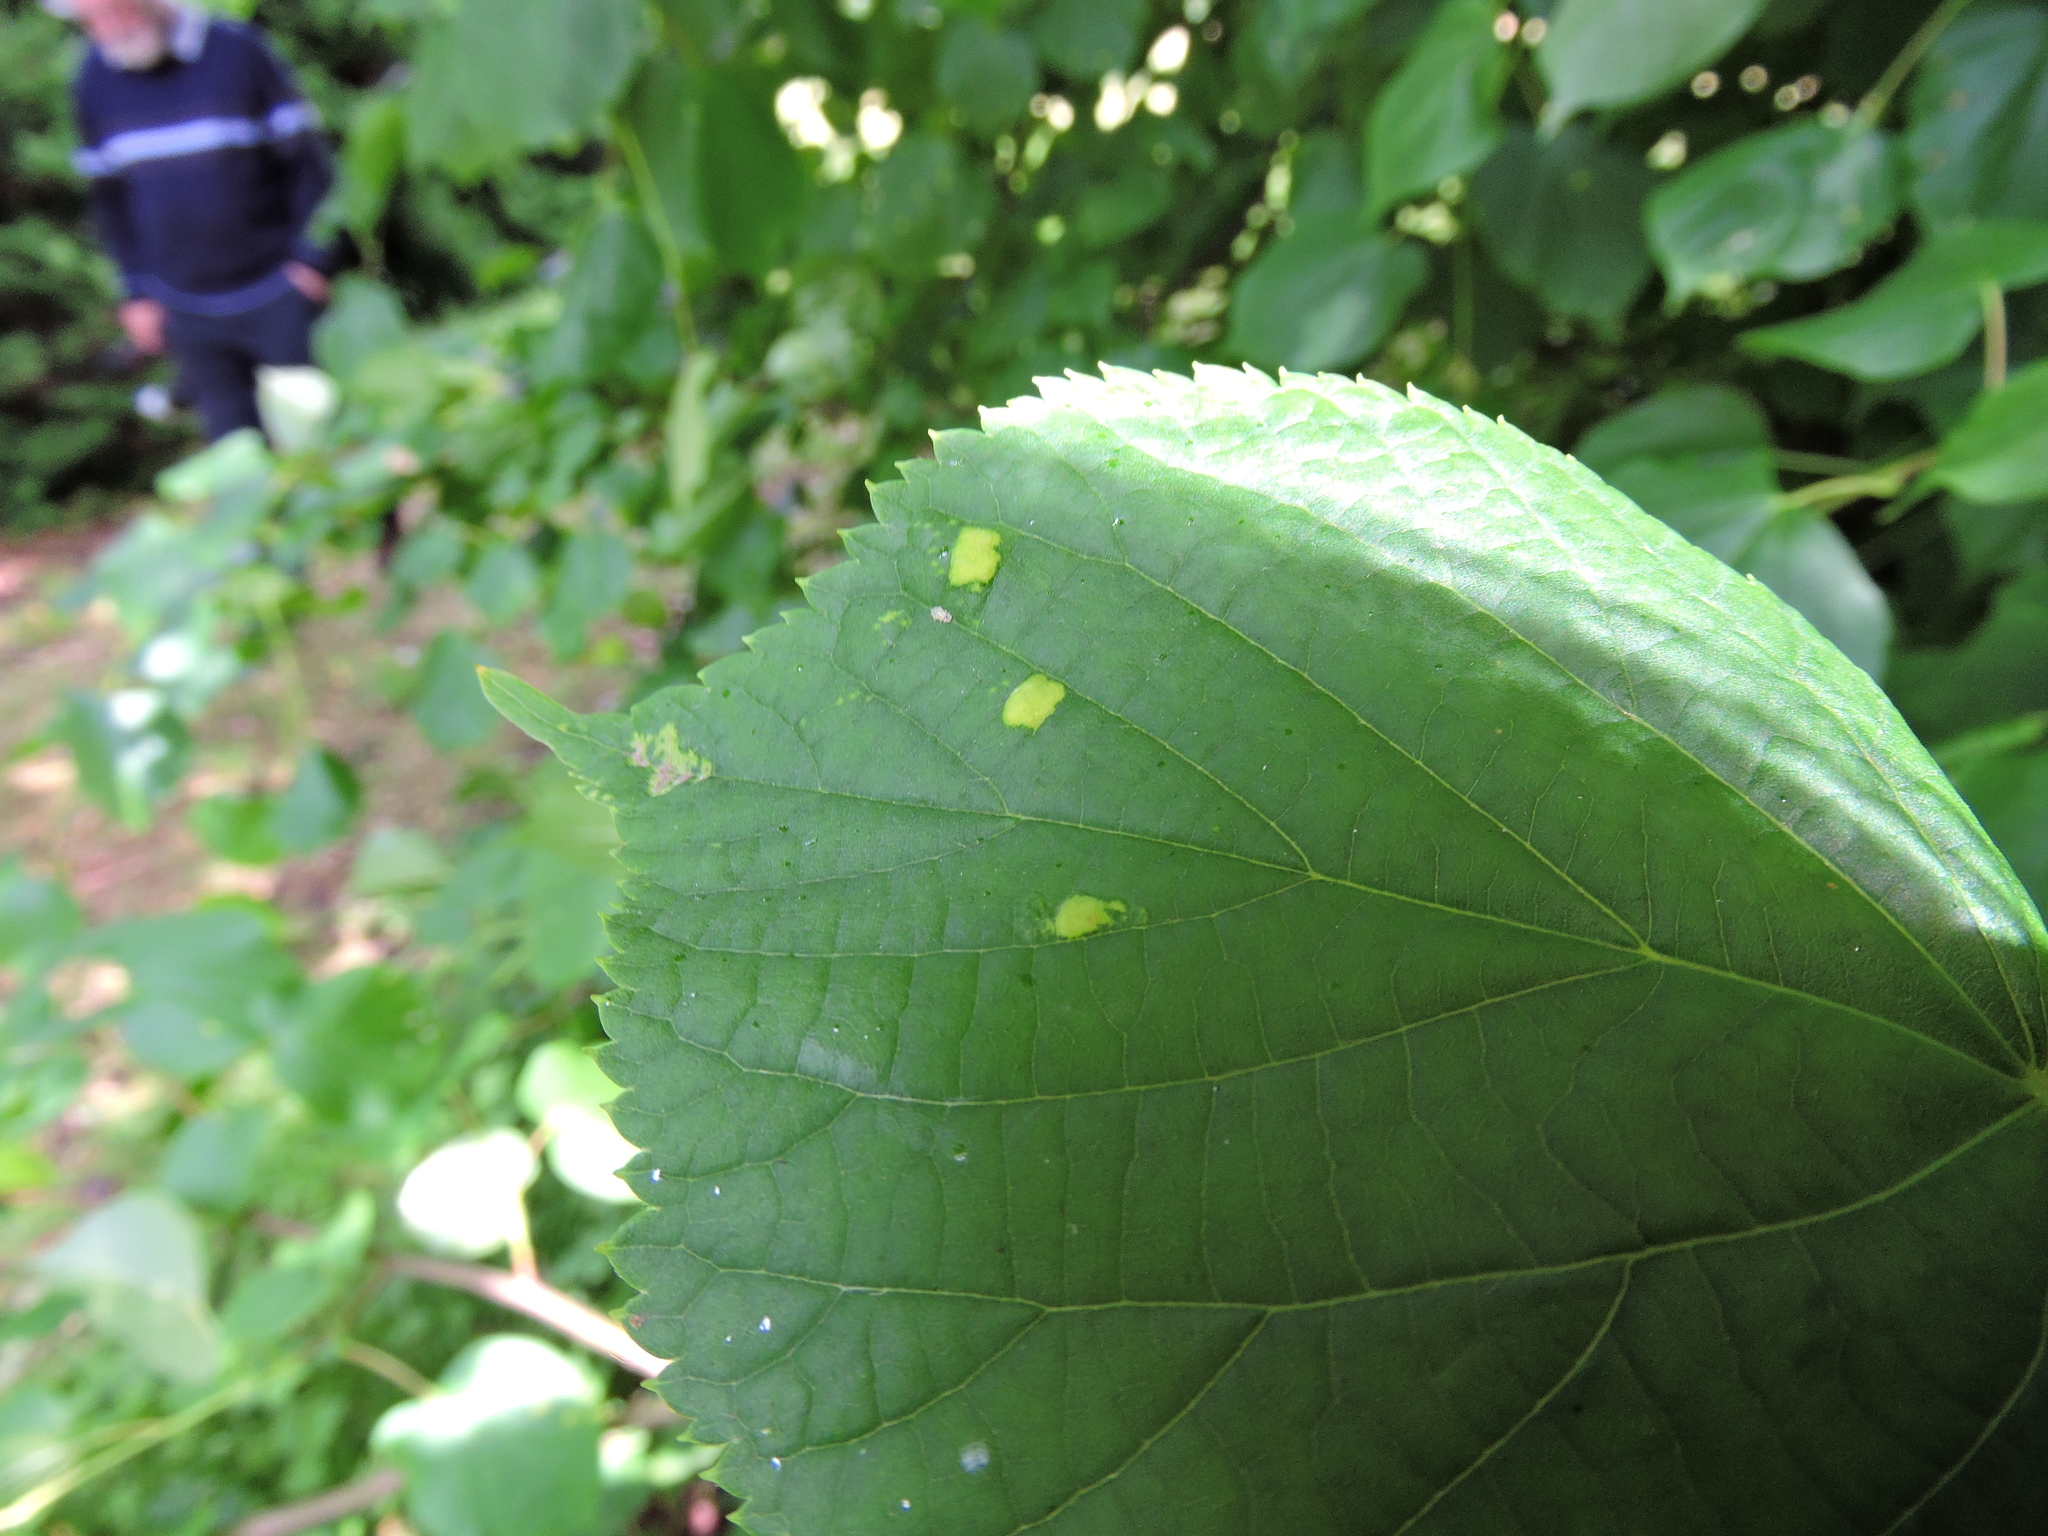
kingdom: Animalia
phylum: Arthropoda
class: Arachnida
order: Trombidiformes
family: Eriophyidae
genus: Eriophyes
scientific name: Eriophyes leiosoma
